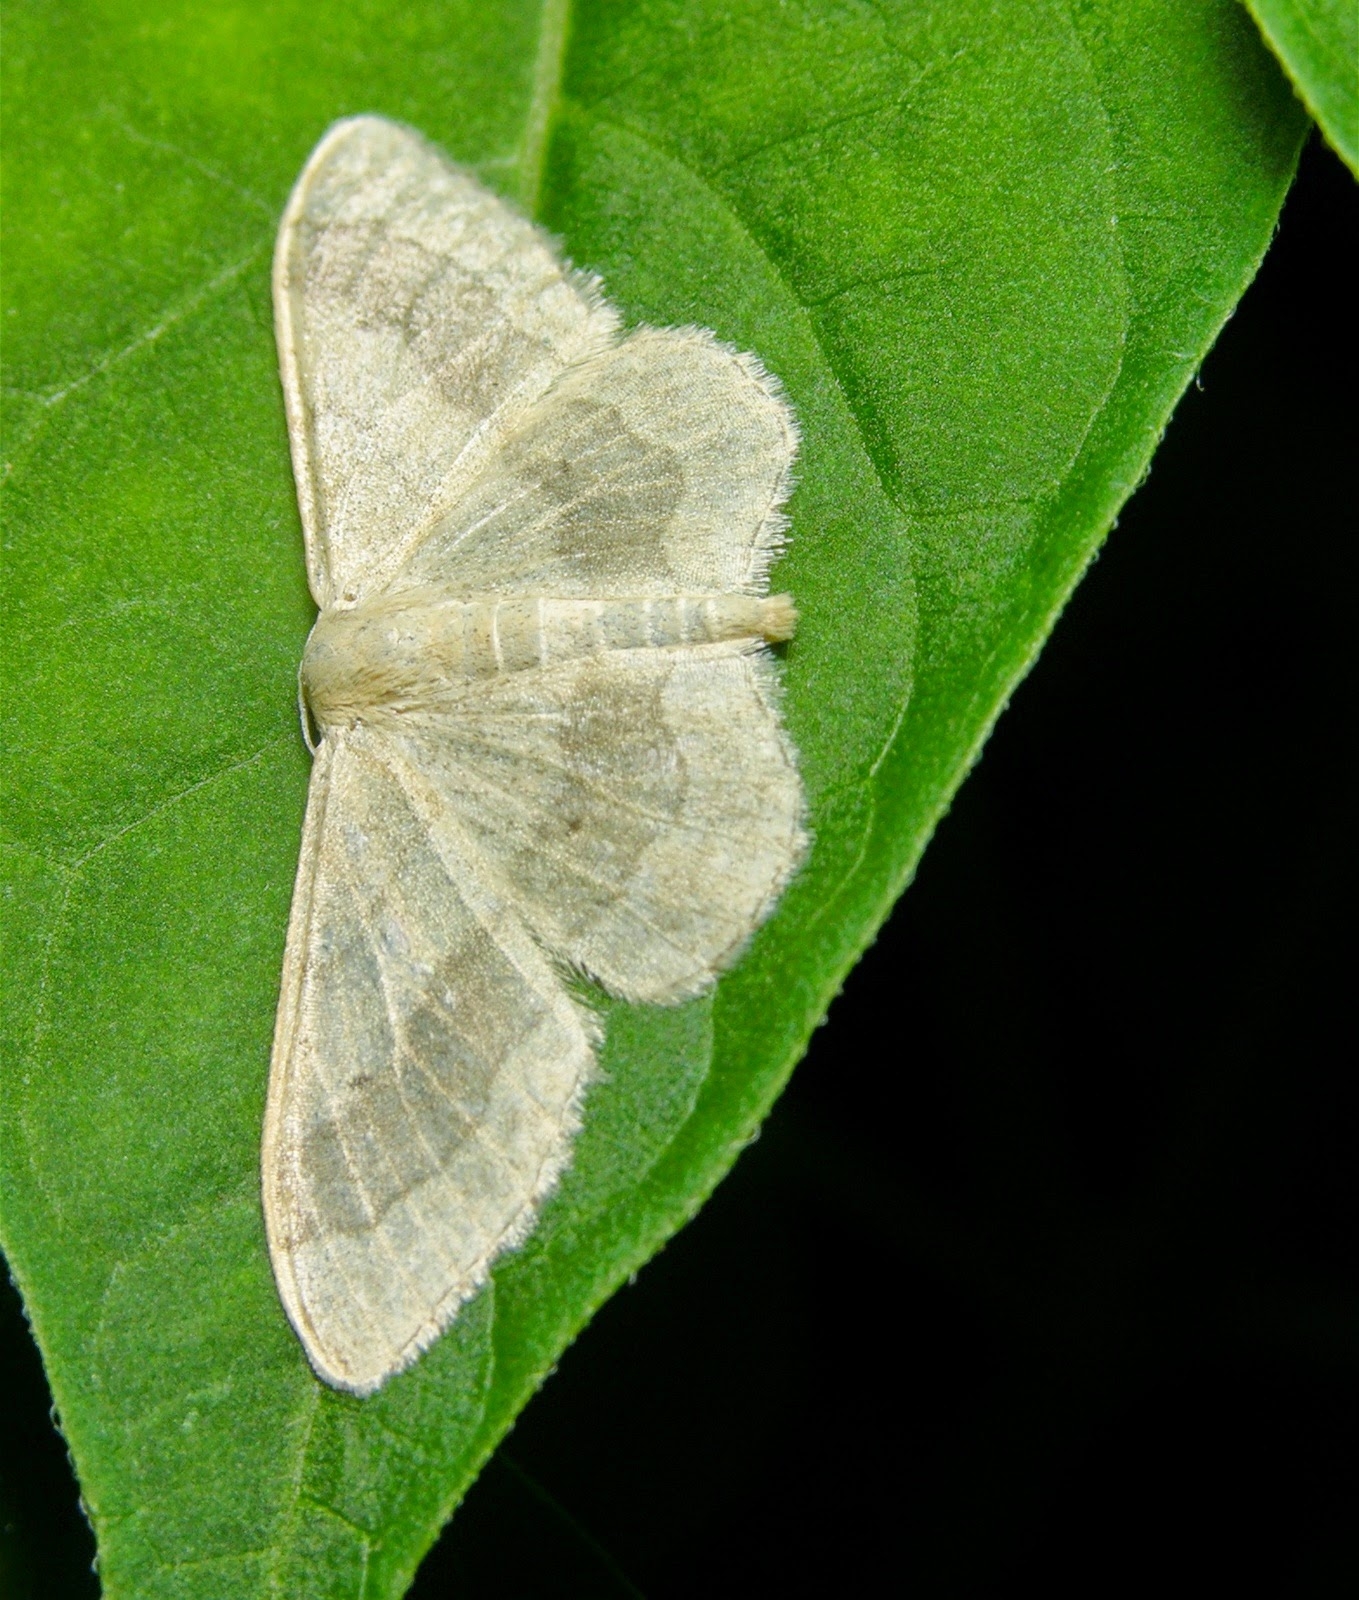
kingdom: Animalia
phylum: Arthropoda
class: Insecta
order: Lepidoptera
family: Geometridae
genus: Idaea
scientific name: Idaea aversata
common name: Riband wave
